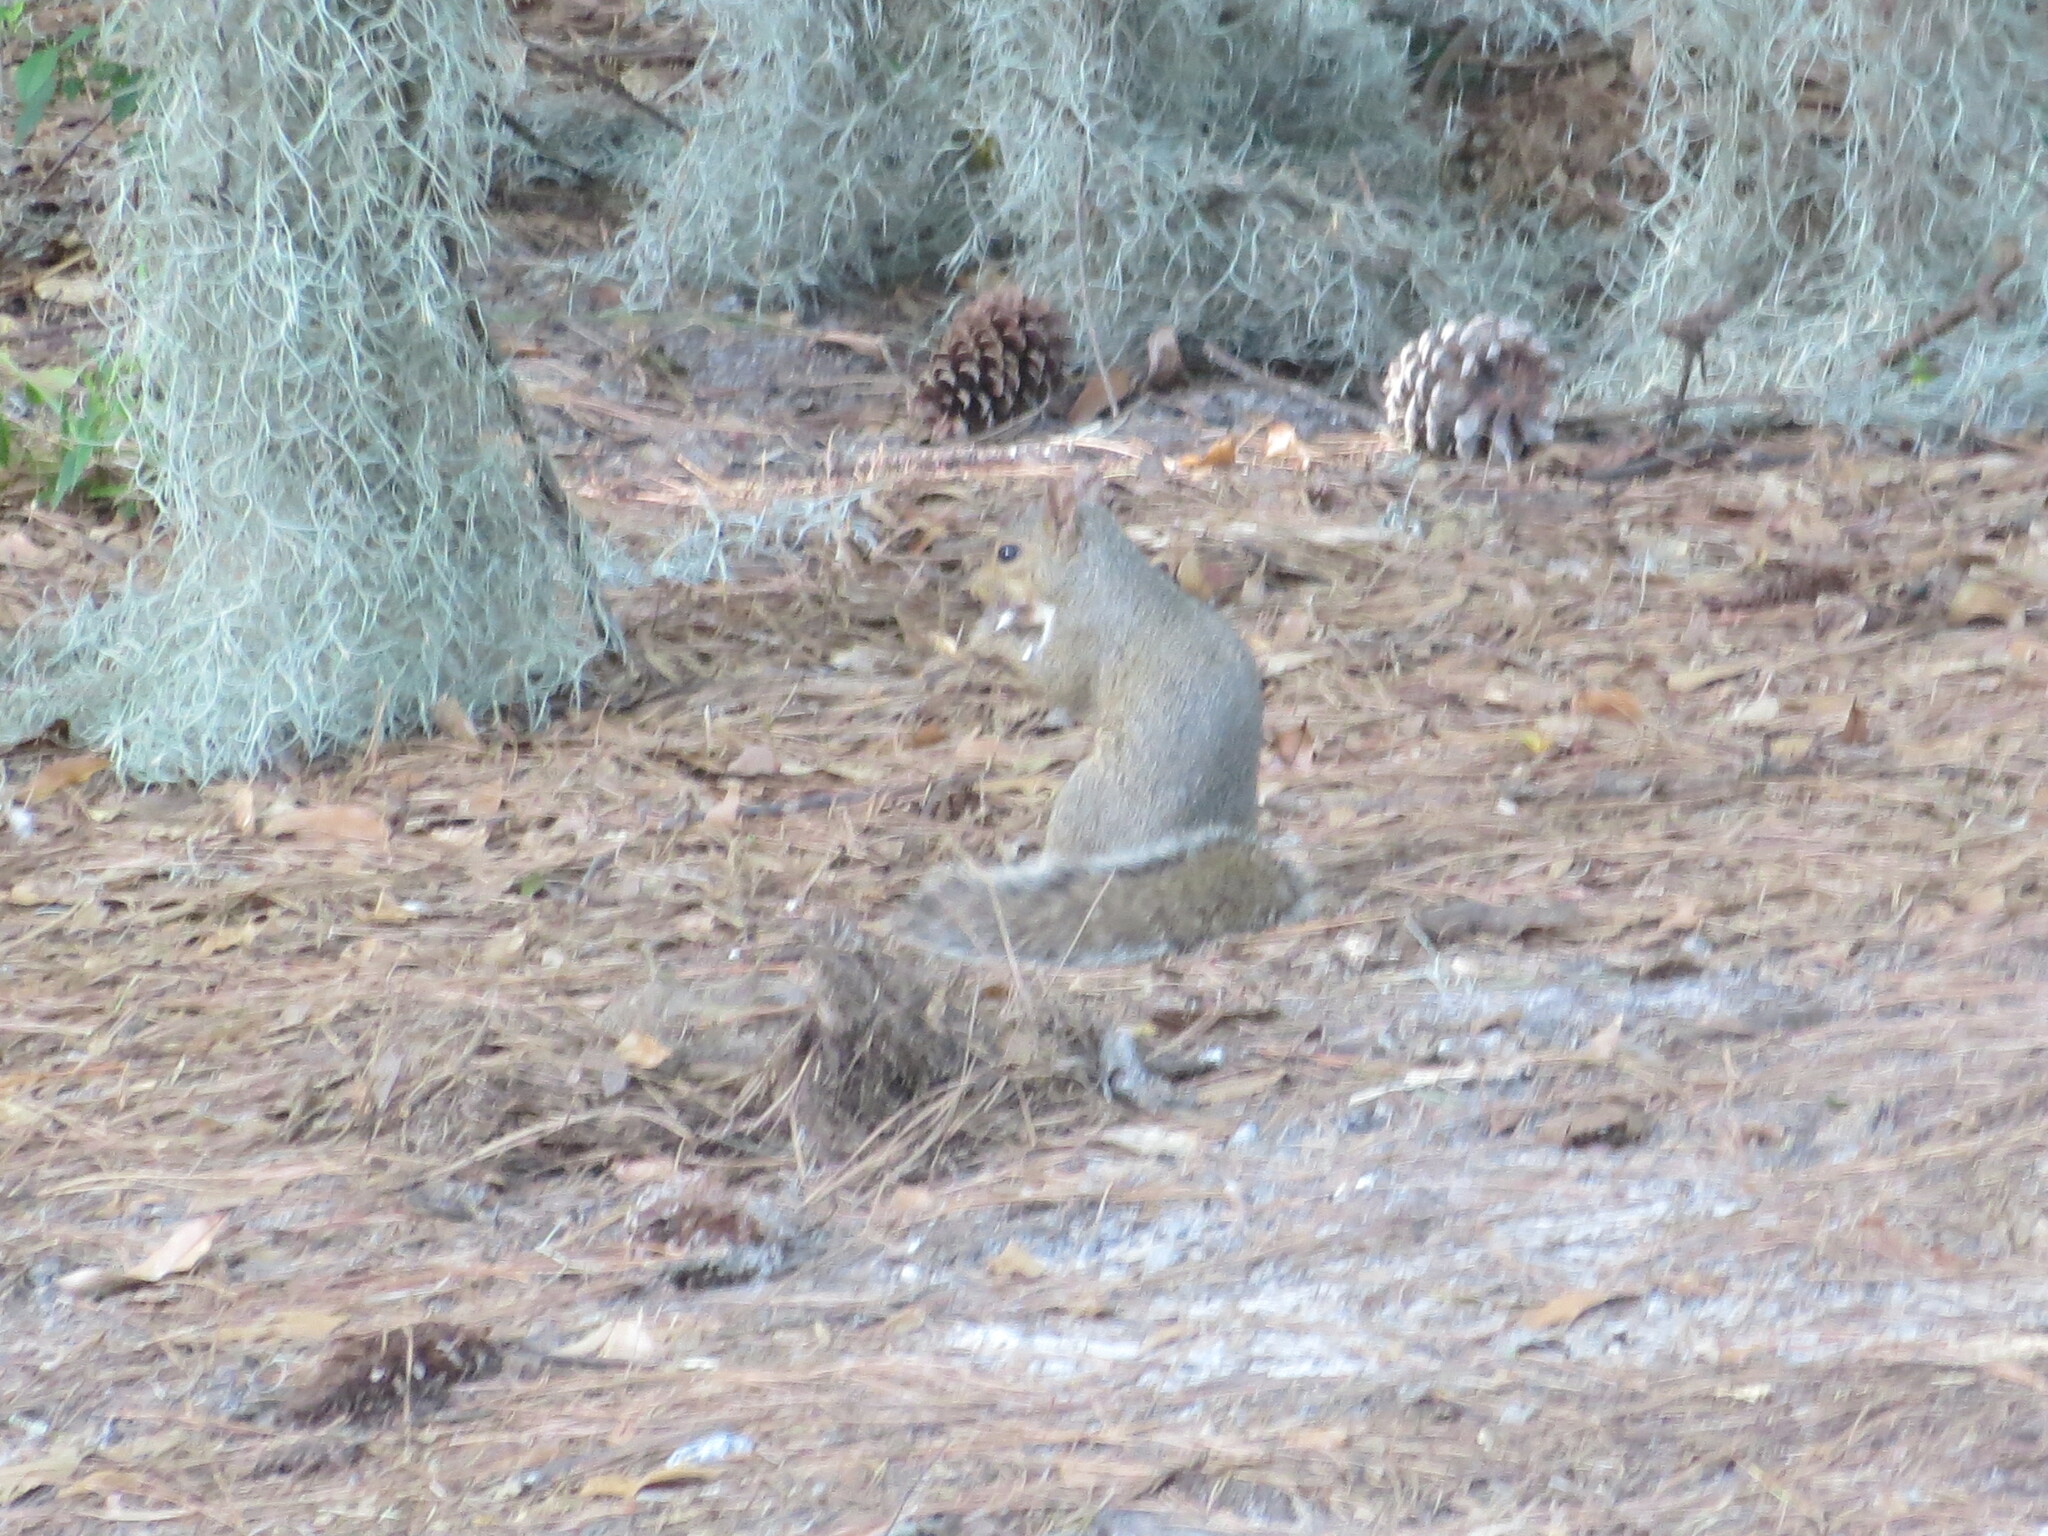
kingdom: Animalia
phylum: Chordata
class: Mammalia
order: Rodentia
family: Sciuridae
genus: Sciurus
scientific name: Sciurus carolinensis
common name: Eastern gray squirrel
